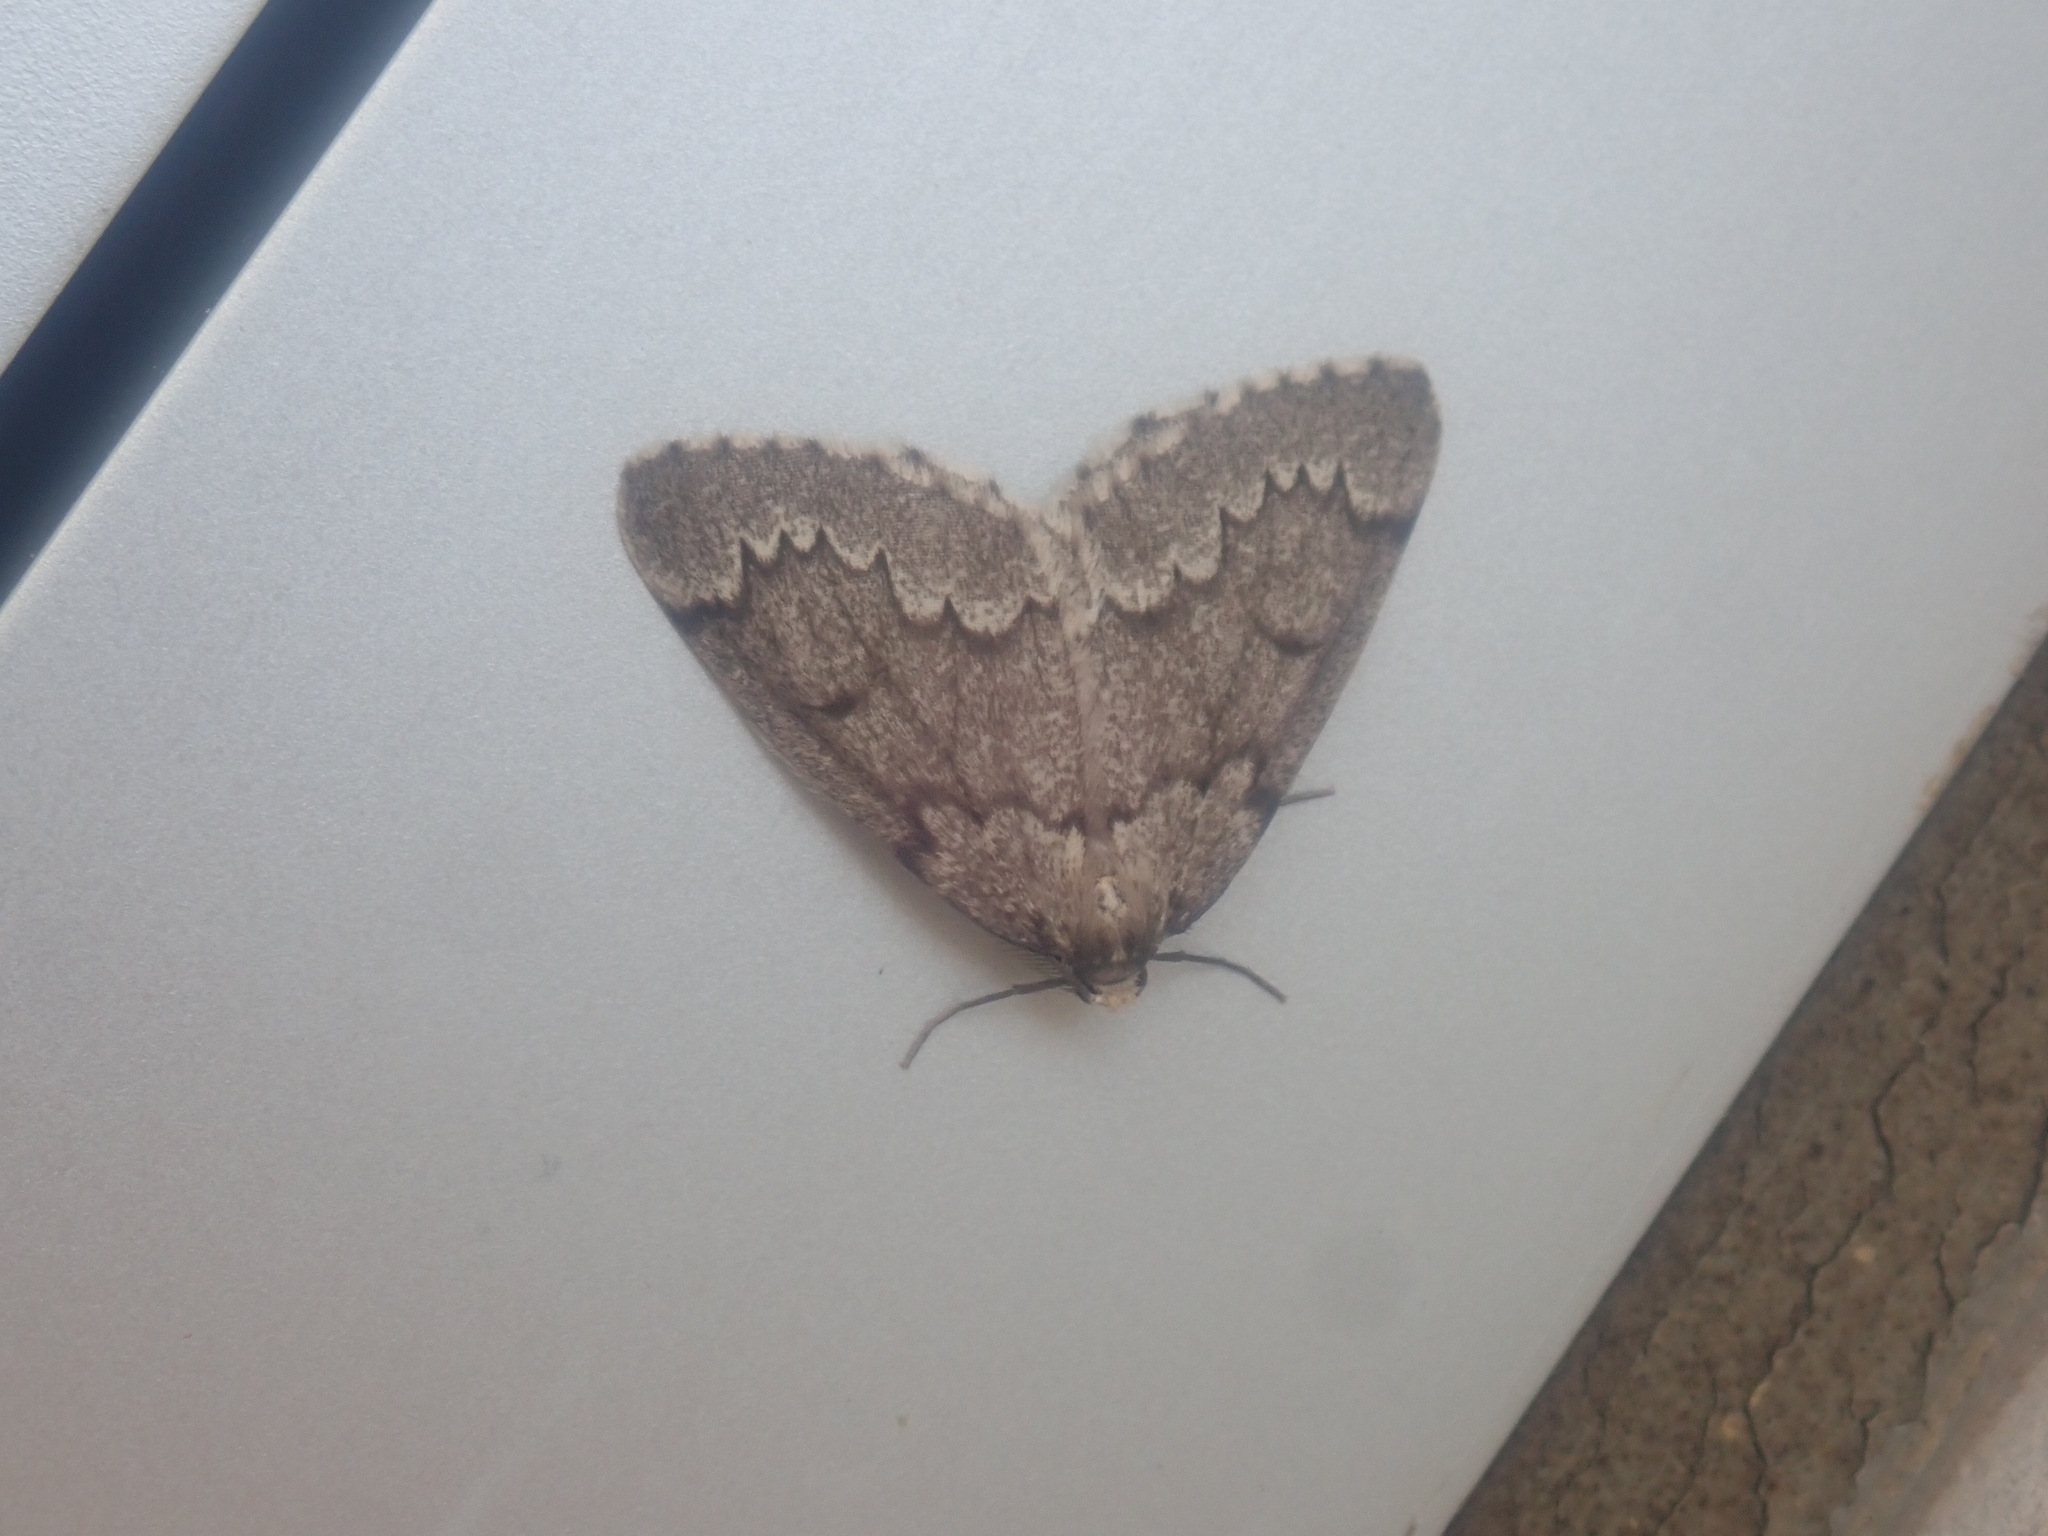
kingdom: Animalia
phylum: Arthropoda
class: Insecta
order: Lepidoptera
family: Geometridae
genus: Nepytia
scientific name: Nepytia canosaria
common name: False hemlock looper
